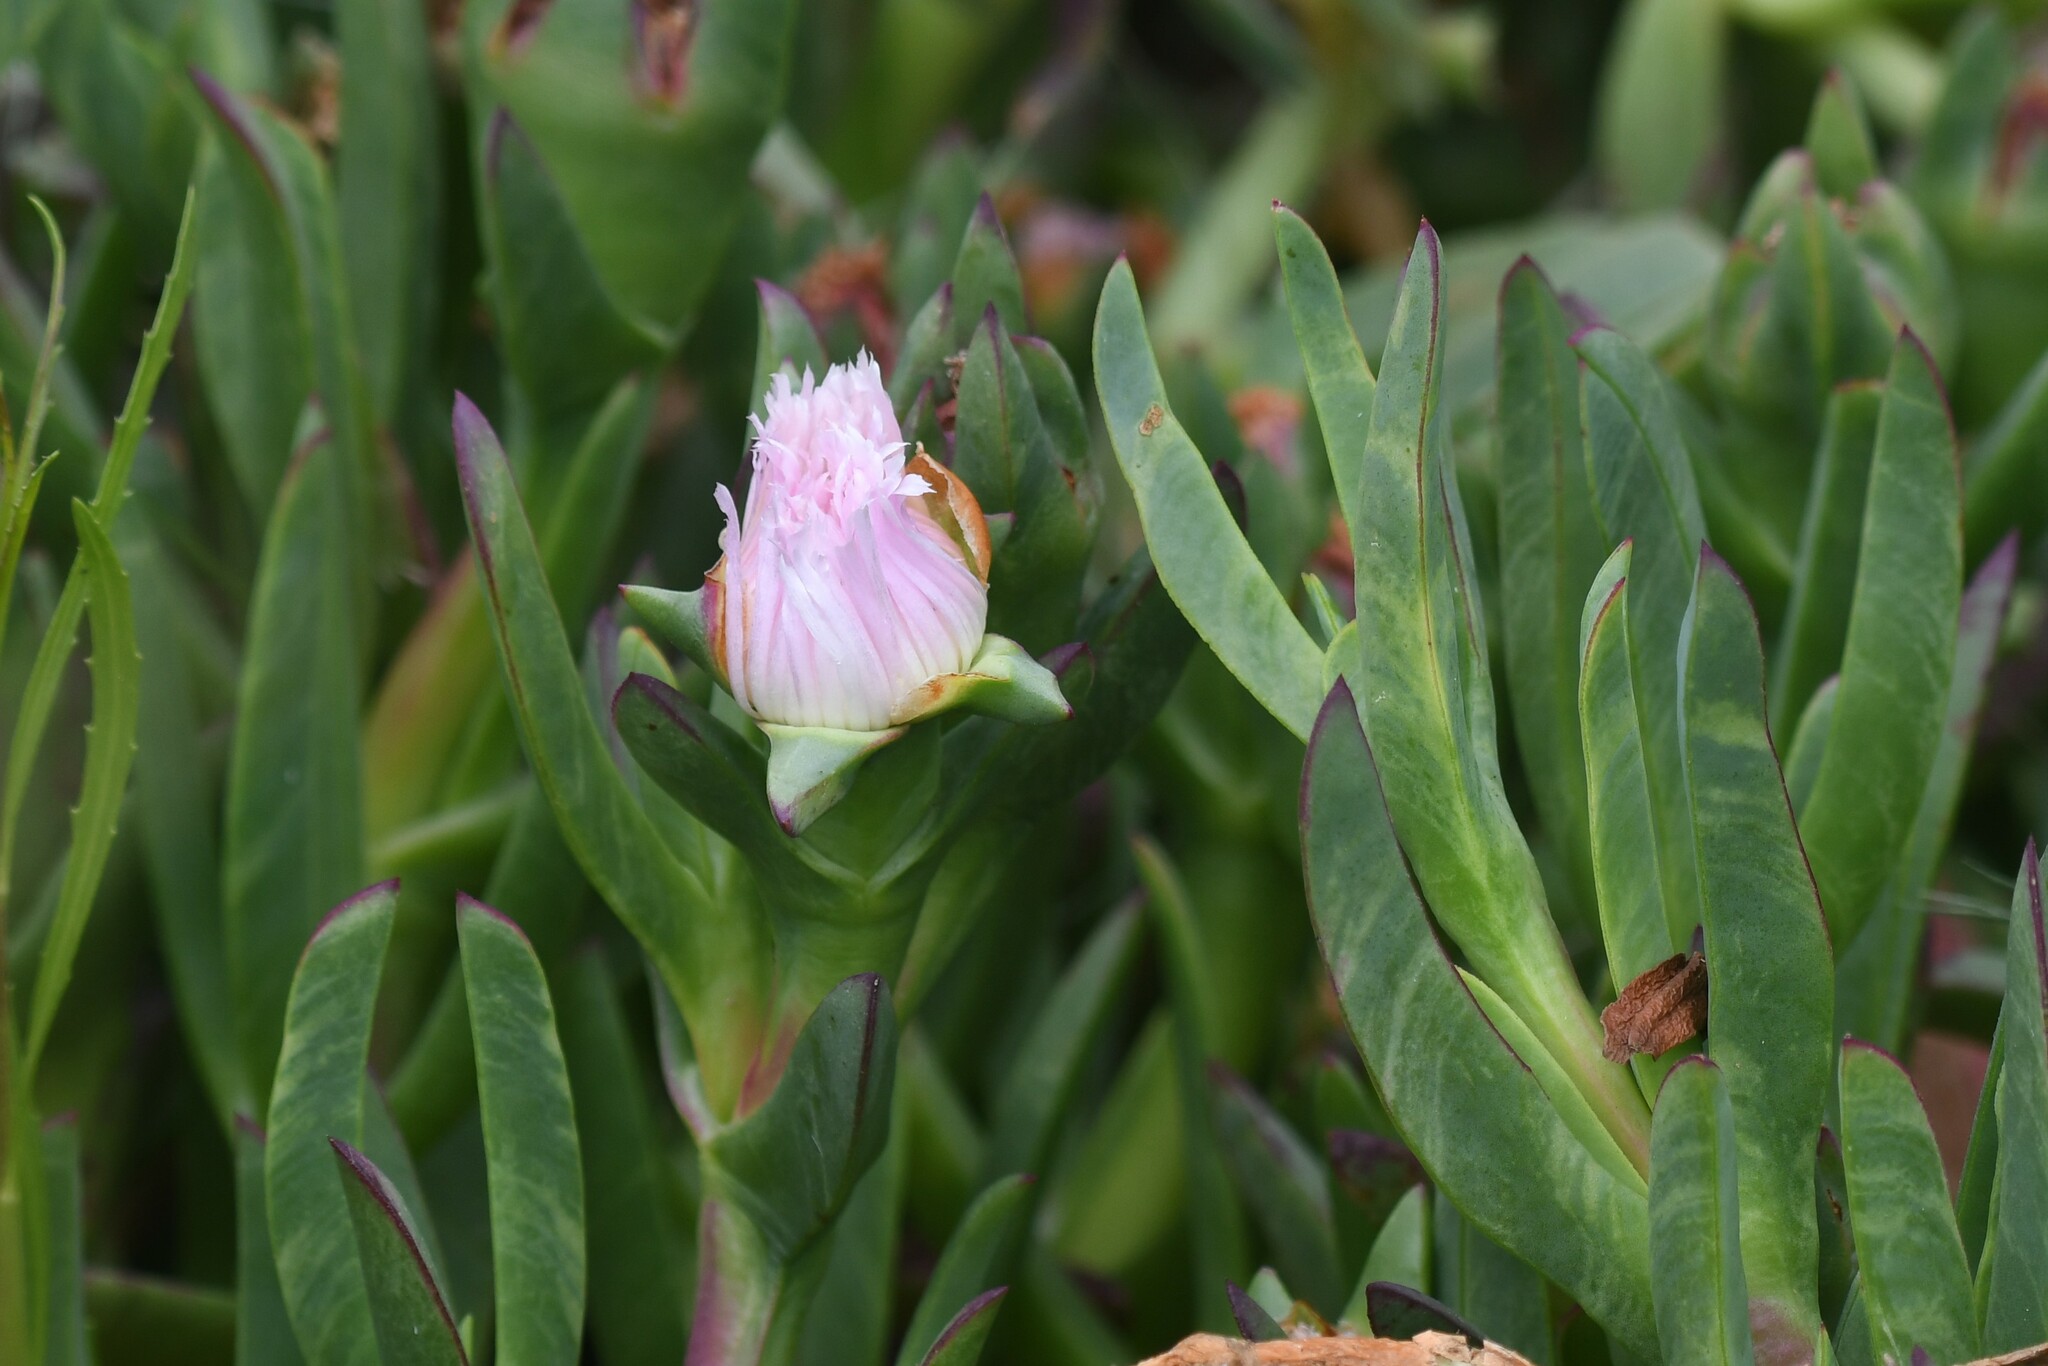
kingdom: Plantae
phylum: Tracheophyta
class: Magnoliopsida
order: Caryophyllales
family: Aizoaceae
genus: Carpobrotus
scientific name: Carpobrotus chilensis
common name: Sea fig
